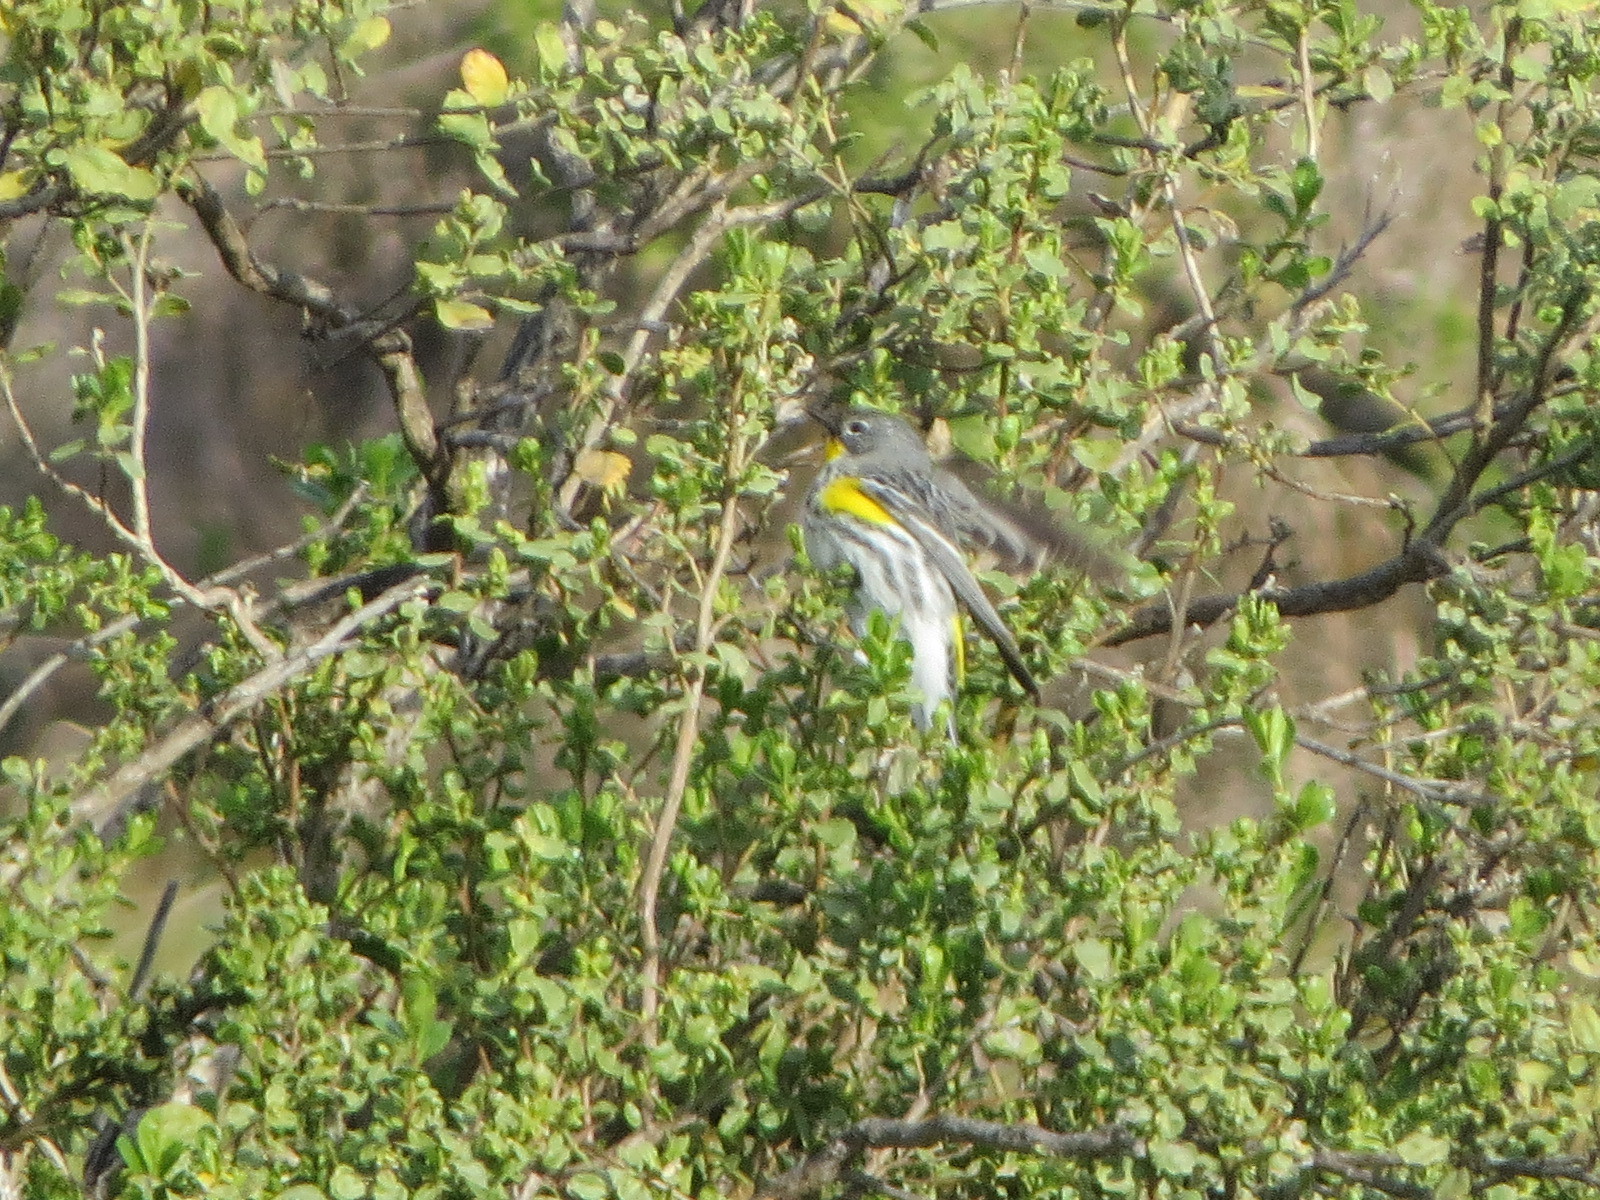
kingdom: Animalia
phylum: Chordata
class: Aves
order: Passeriformes
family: Parulidae
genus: Setophaga
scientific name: Setophaga auduboni
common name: Audubon's warbler
